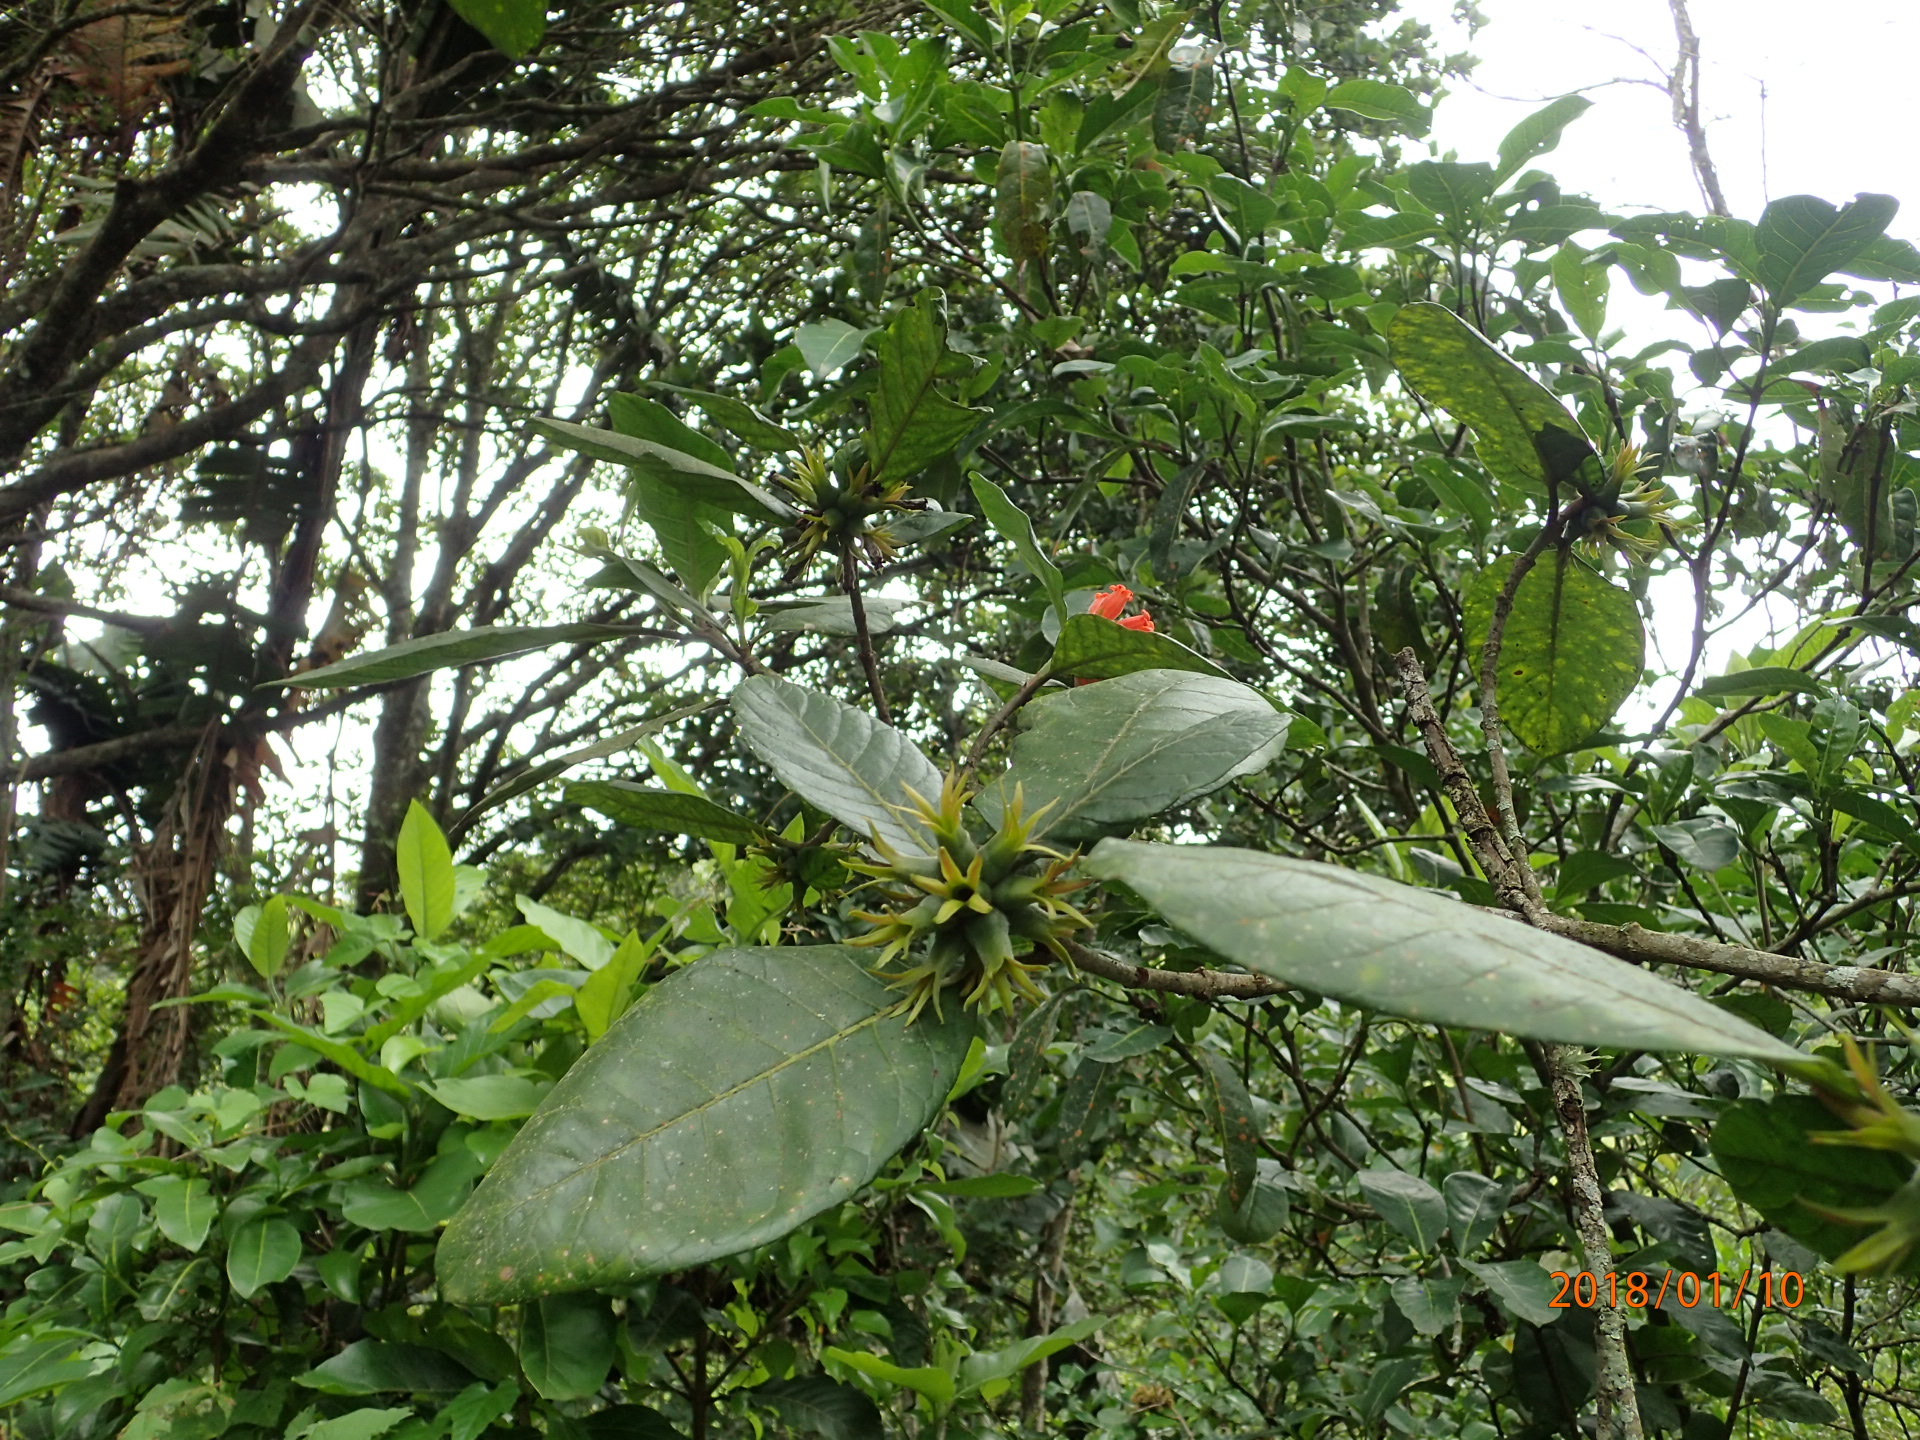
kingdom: Plantae
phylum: Tracheophyta
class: Magnoliopsida
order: Gentianales
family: Rubiaceae
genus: Burchellia
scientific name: Burchellia bubalina
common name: Wild pomegranate
